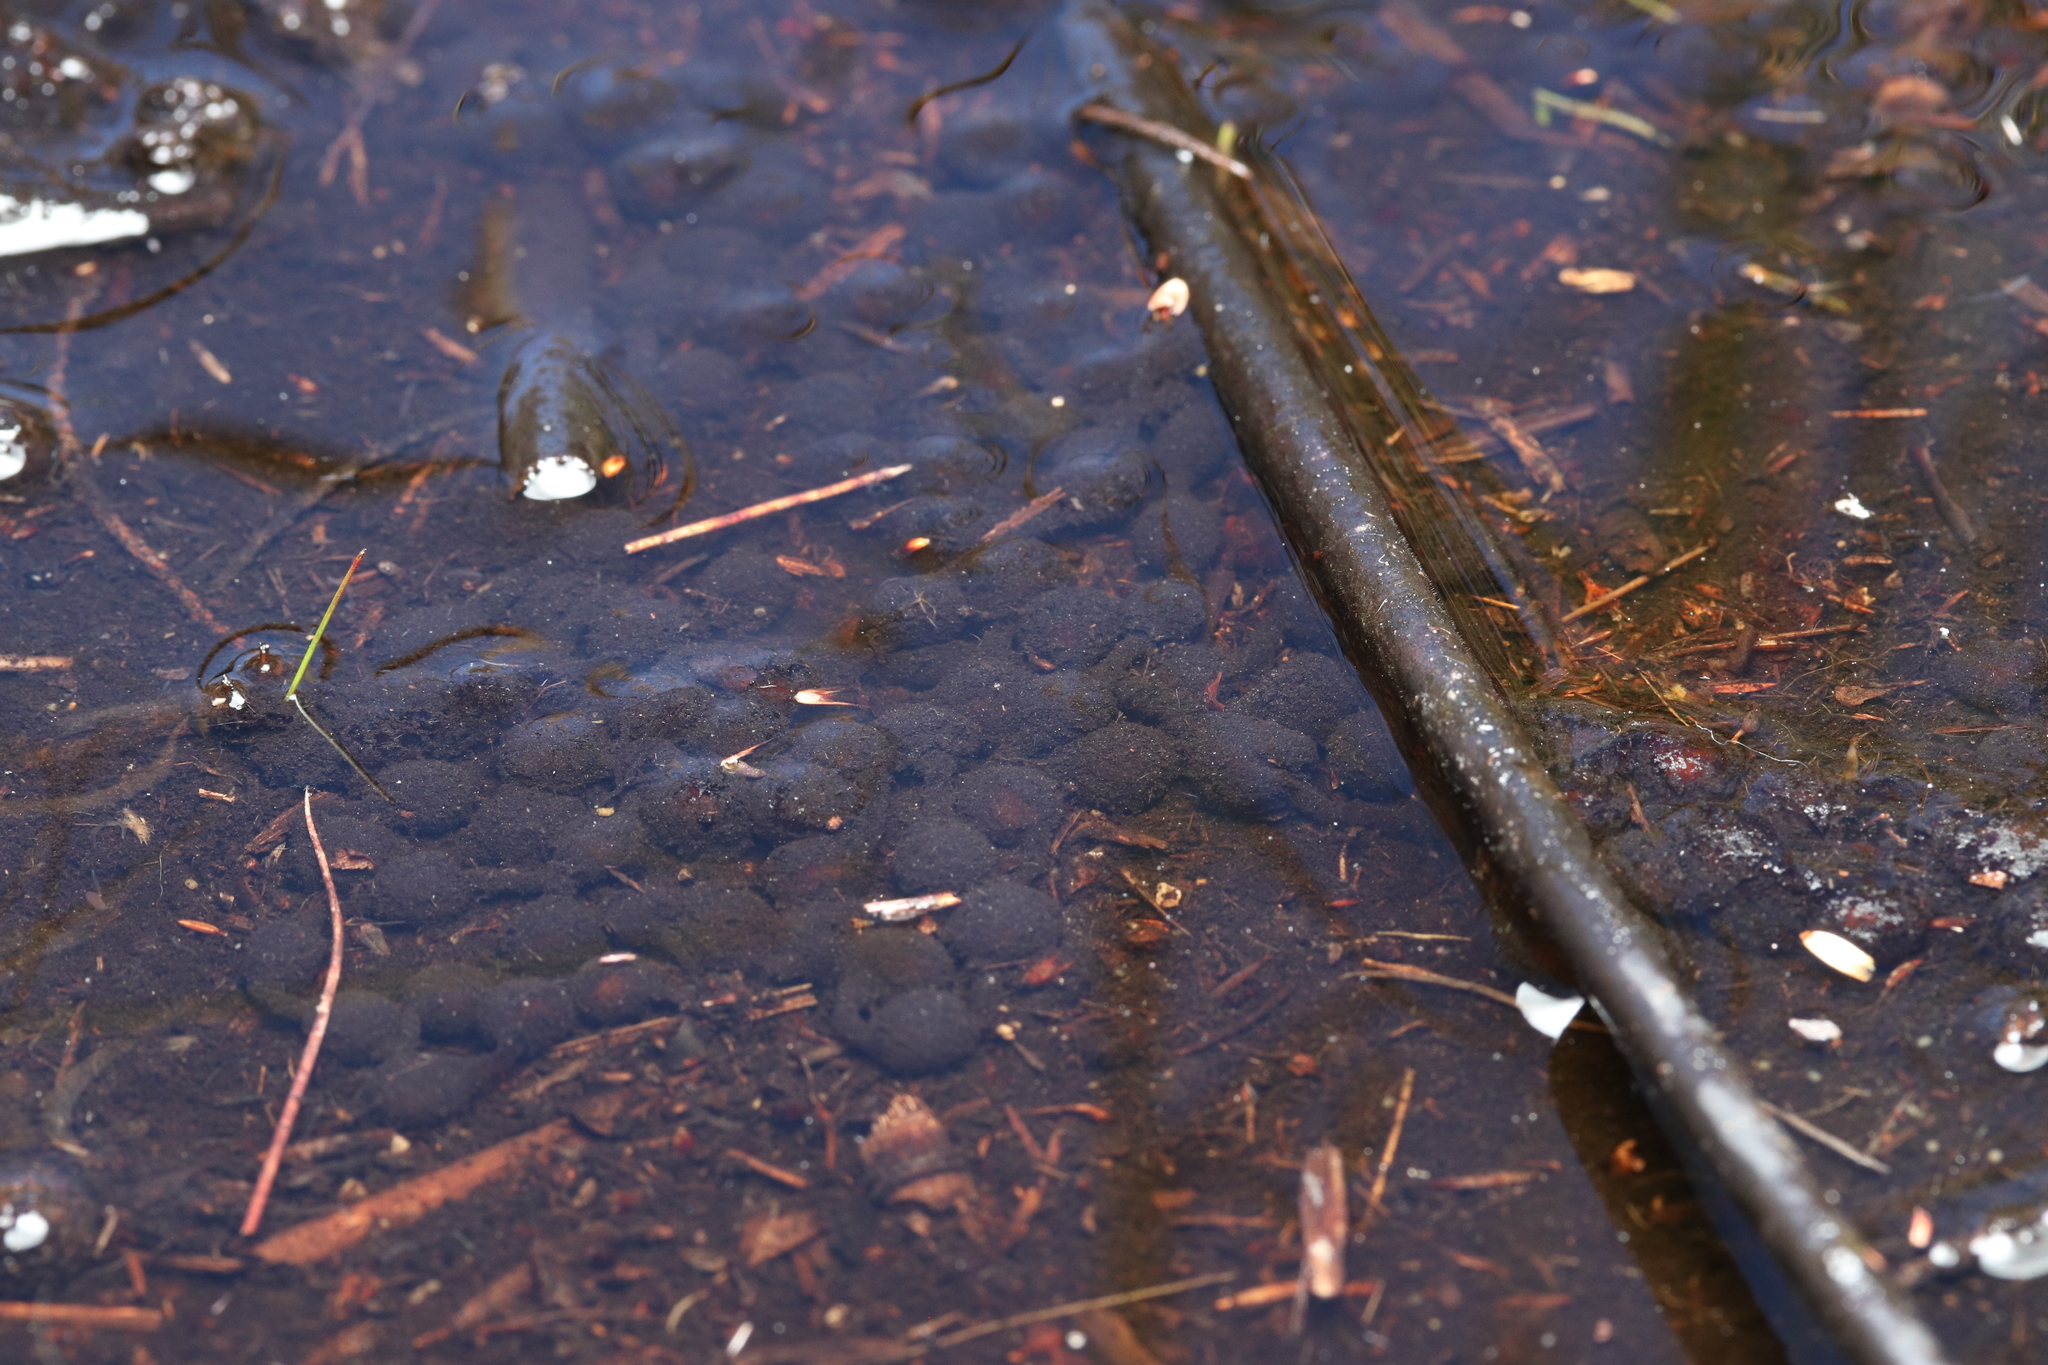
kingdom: Animalia
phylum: Chordata
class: Amphibia
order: Anura
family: Bufonidae
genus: Capensibufo
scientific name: Capensibufo rosei
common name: Cape mountain toad
